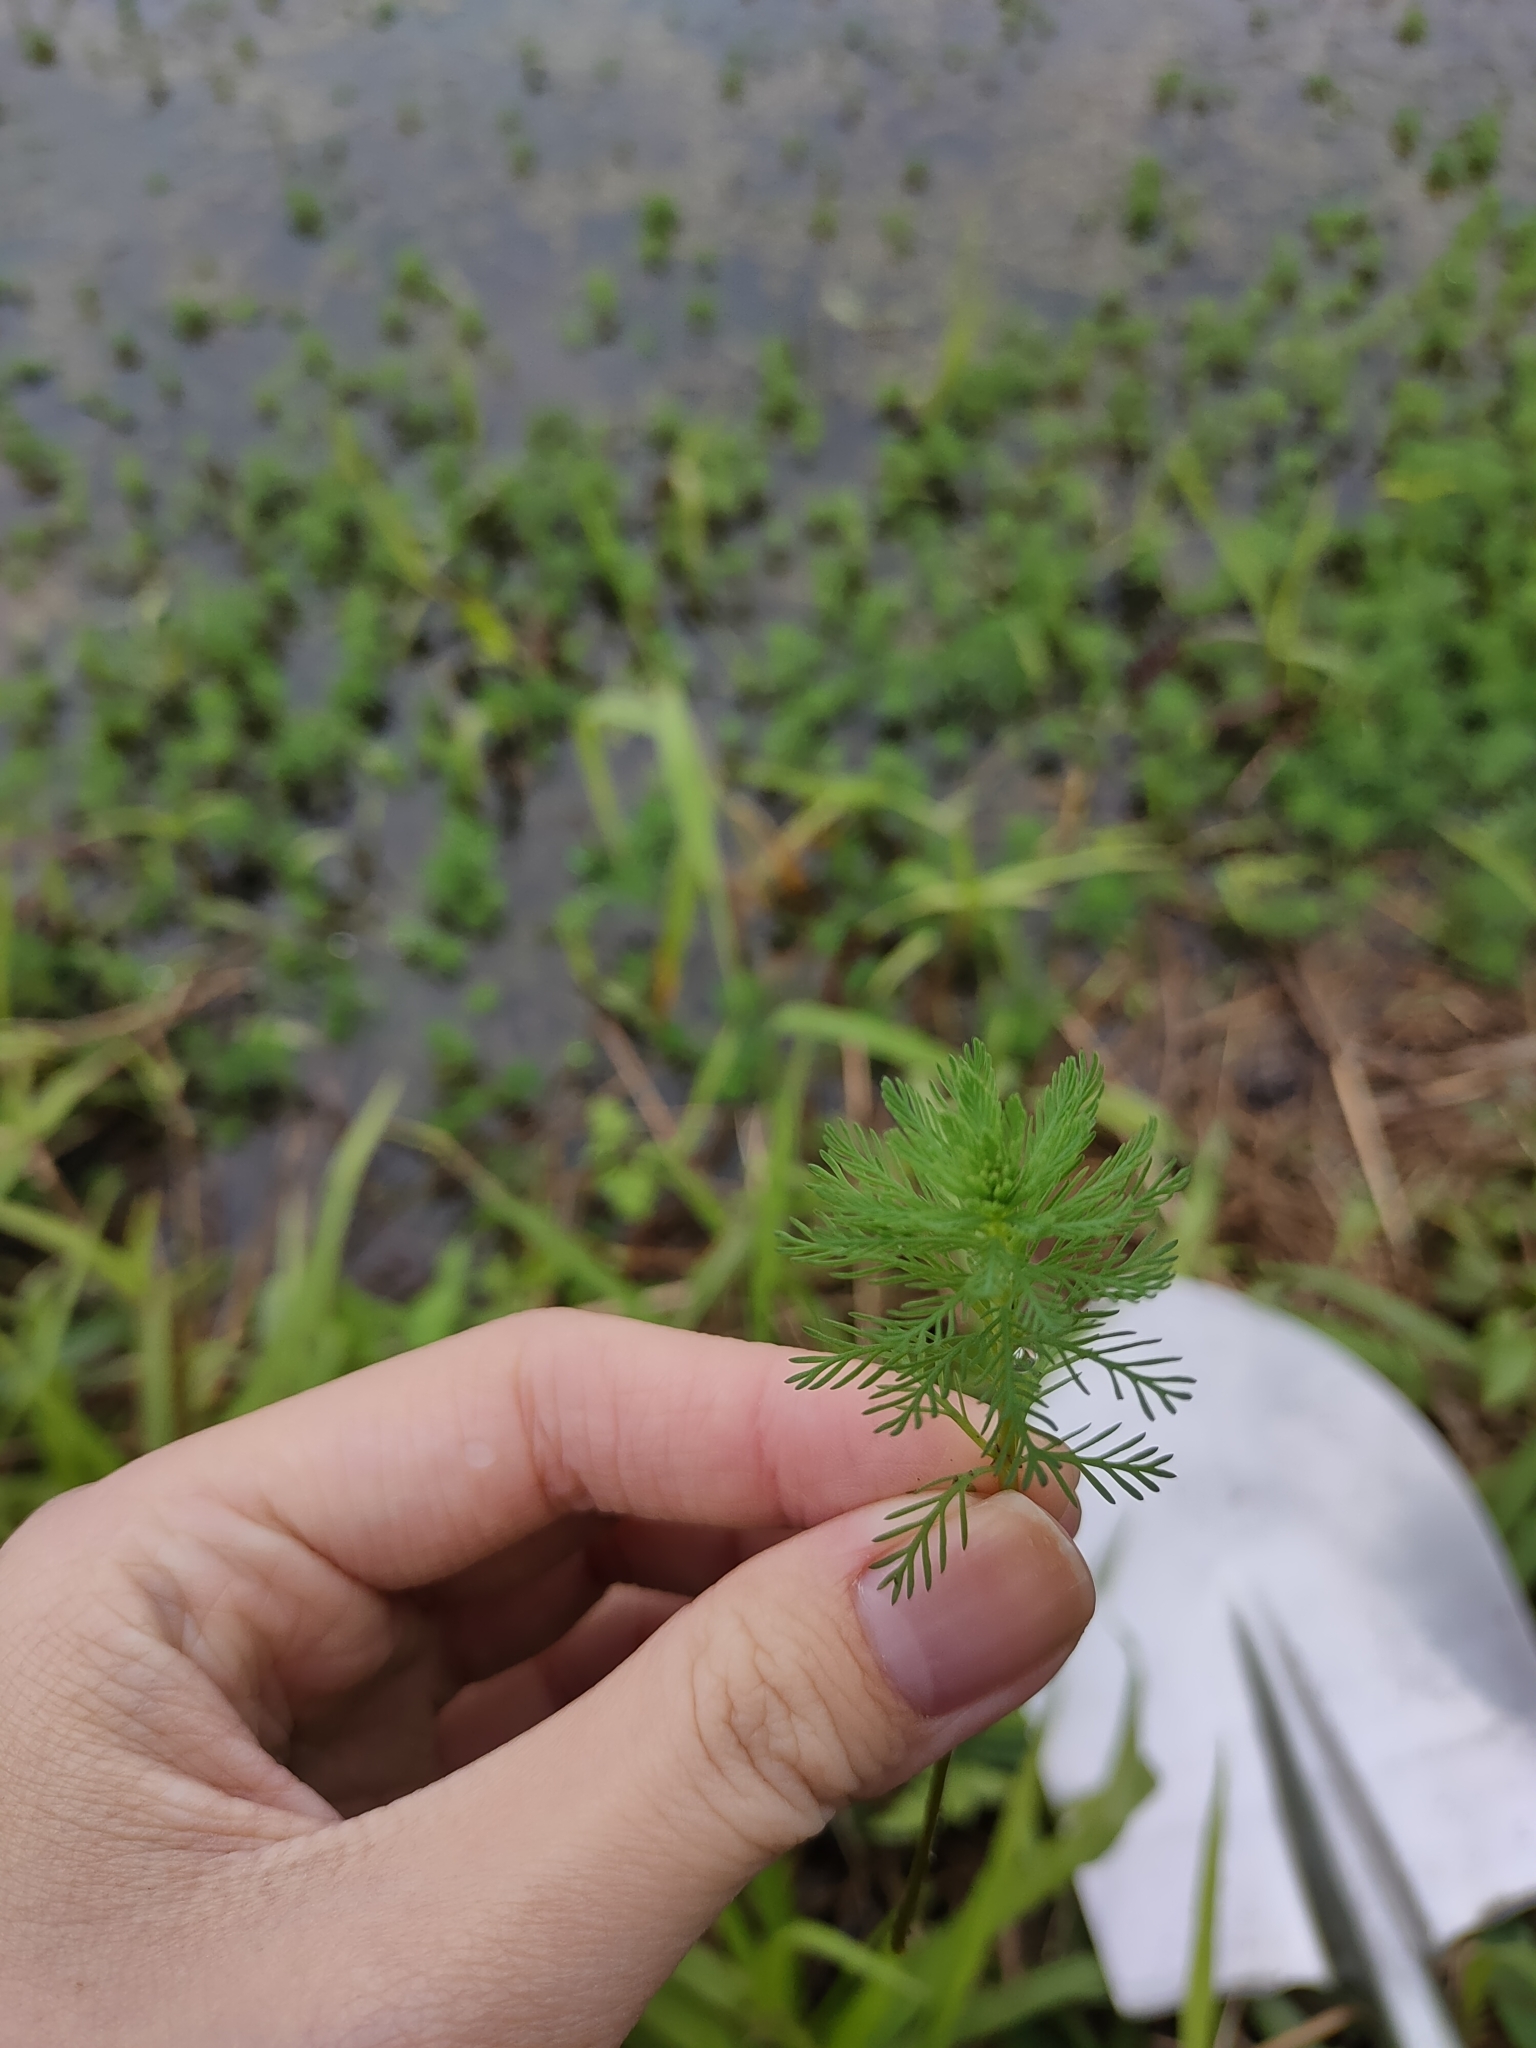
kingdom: Plantae
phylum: Tracheophyta
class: Magnoliopsida
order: Saxifragales
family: Haloragaceae
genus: Myriophyllum
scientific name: Myriophyllum aquaticum
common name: Parrot's feather
